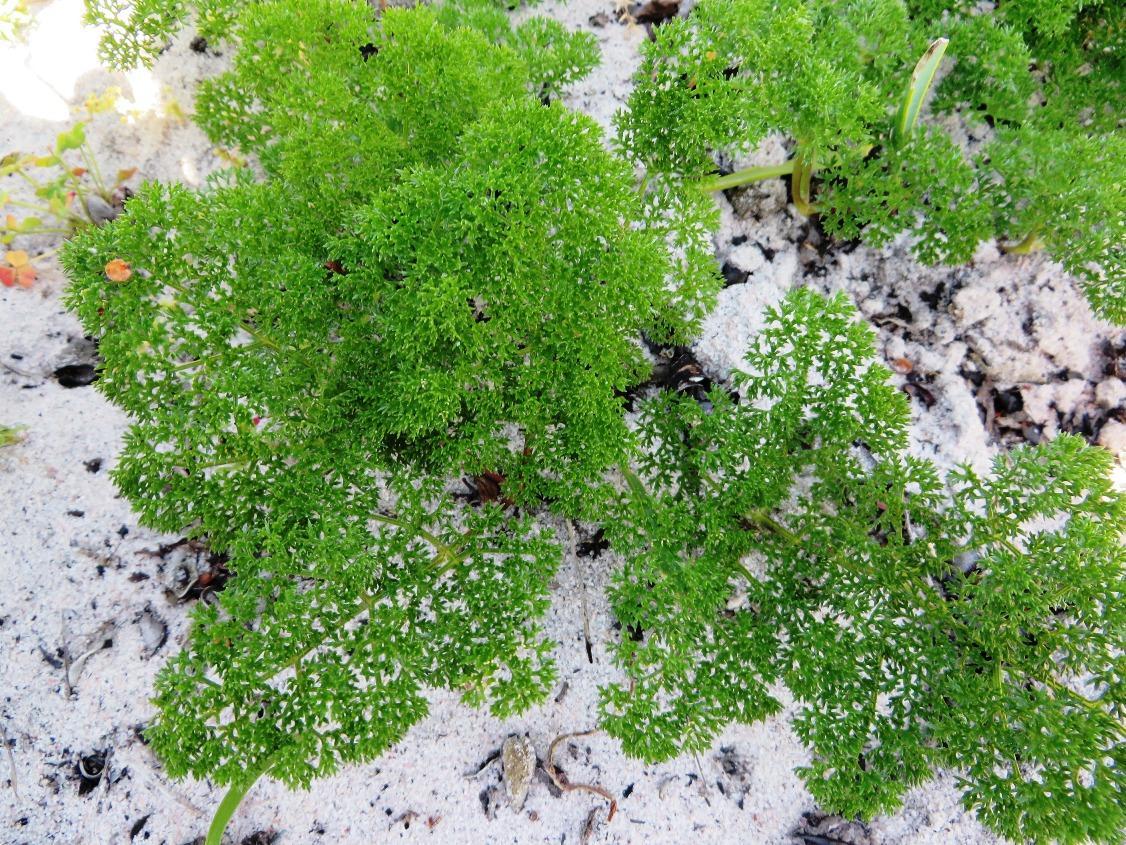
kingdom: Plantae
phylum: Tracheophyta
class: Magnoliopsida
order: Apiales
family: Apiaceae
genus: Annesorhiza
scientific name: Annesorhiza macrocarpa
